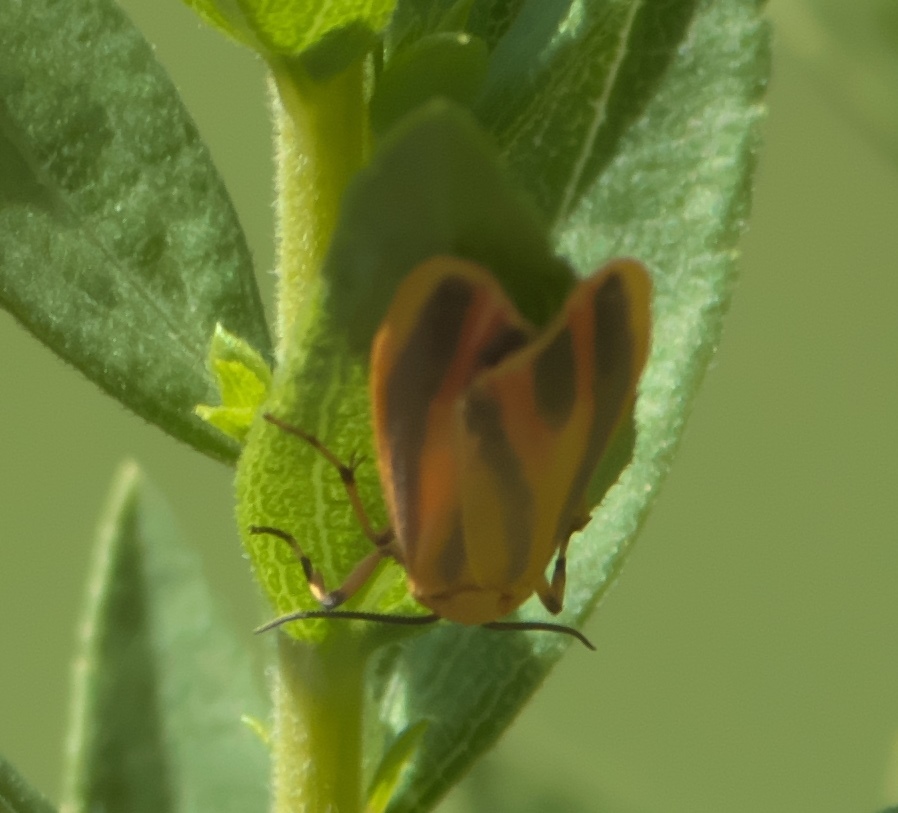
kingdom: Animalia
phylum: Arthropoda
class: Insecta
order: Lepidoptera
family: Erebidae
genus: Hypoprepia
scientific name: Hypoprepia fucosa
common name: Painted lichen moth
